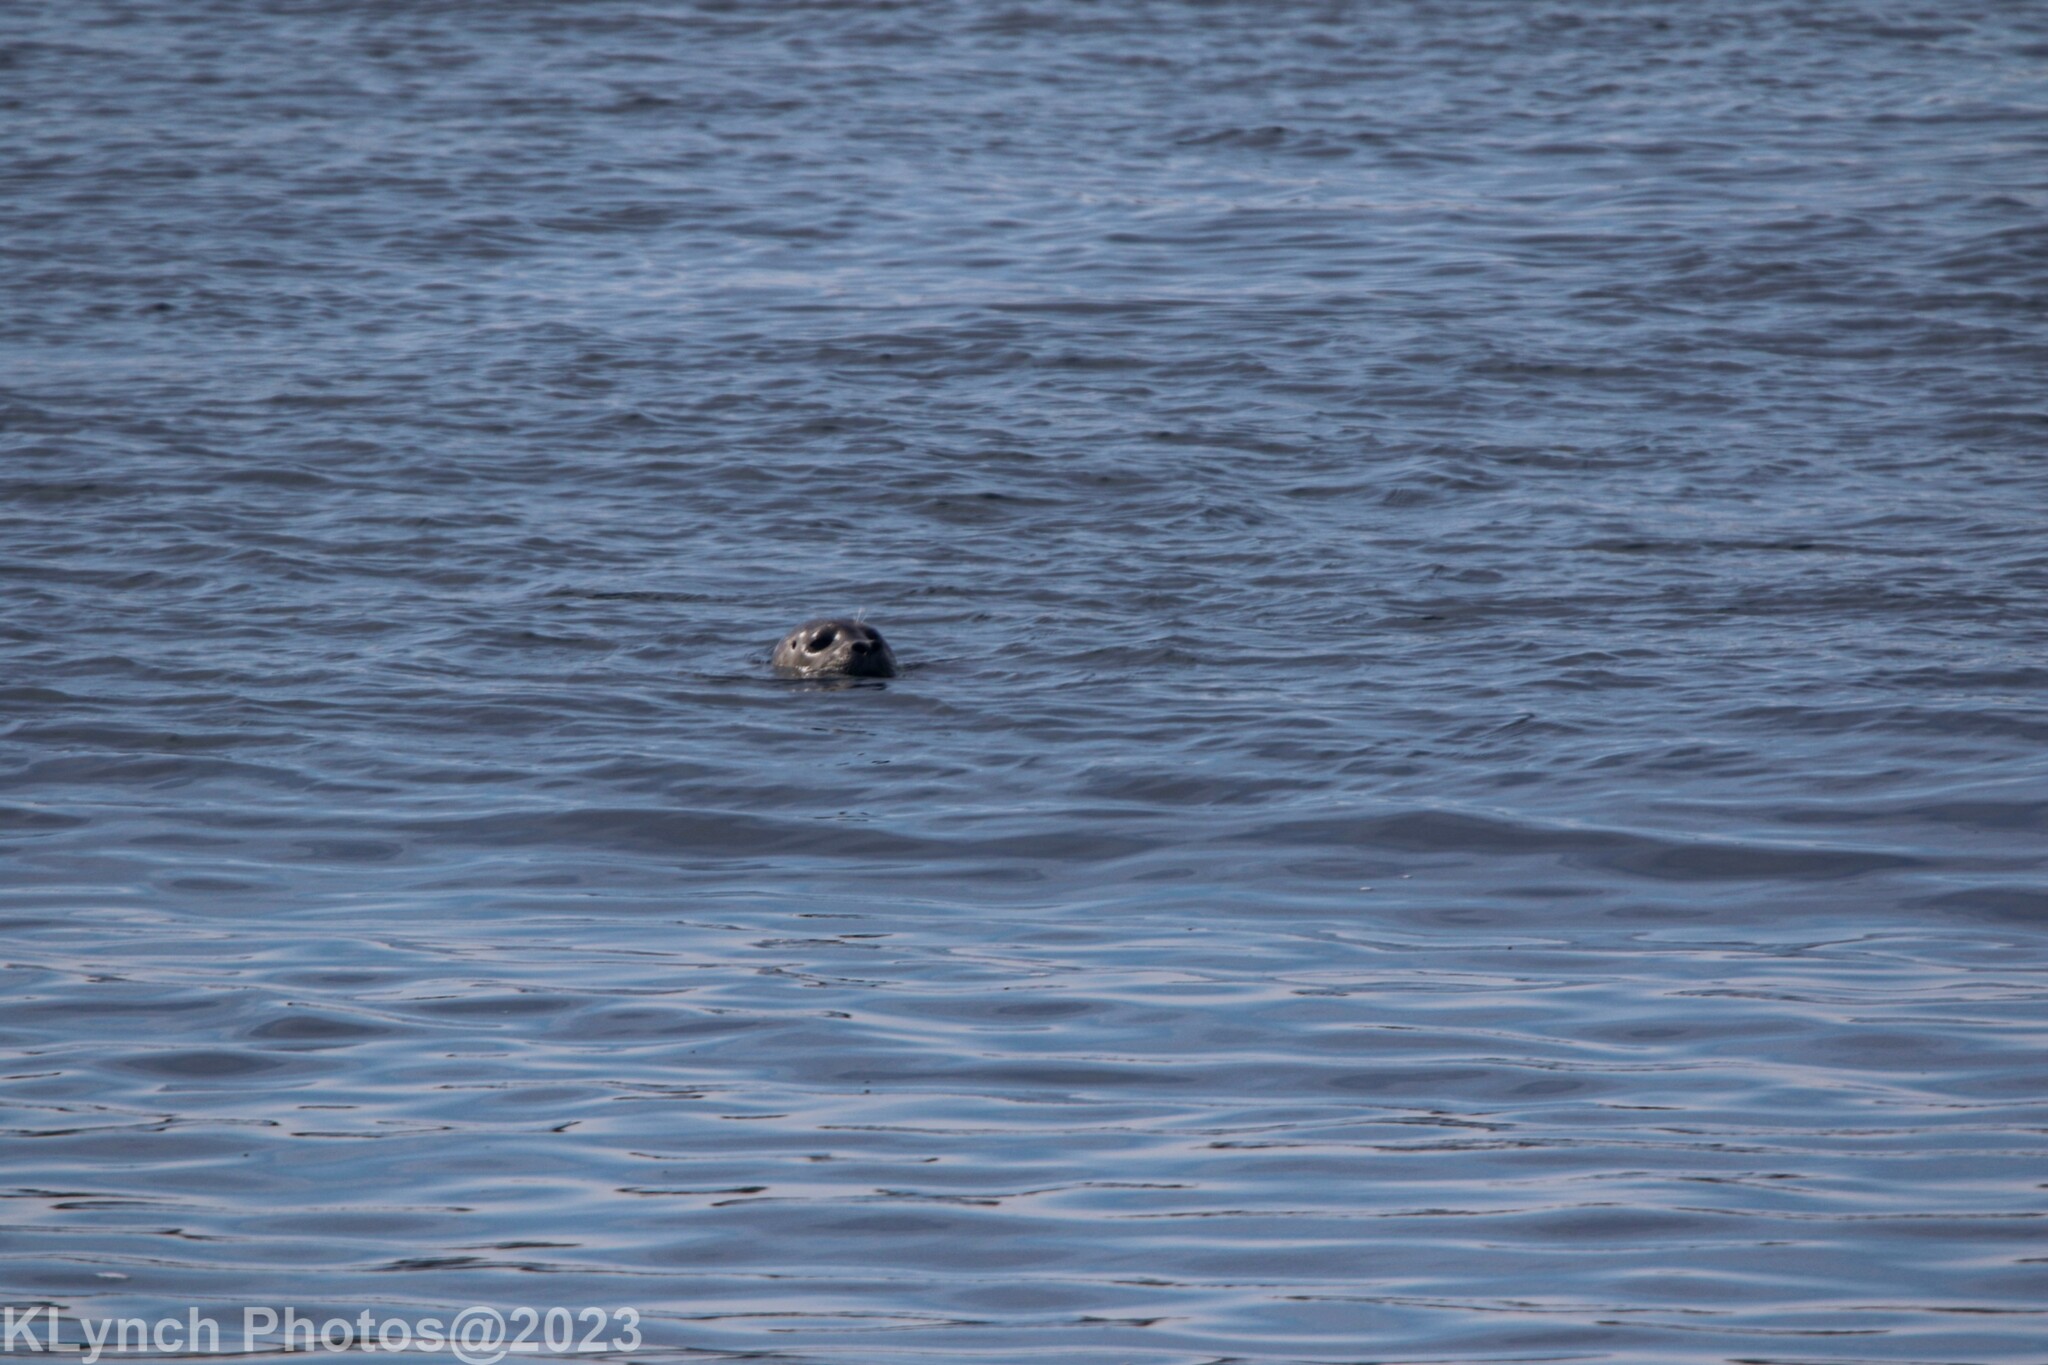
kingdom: Animalia
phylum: Chordata
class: Mammalia
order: Carnivora
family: Phocidae
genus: Phoca
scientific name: Phoca vitulina
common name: Harbor seal
